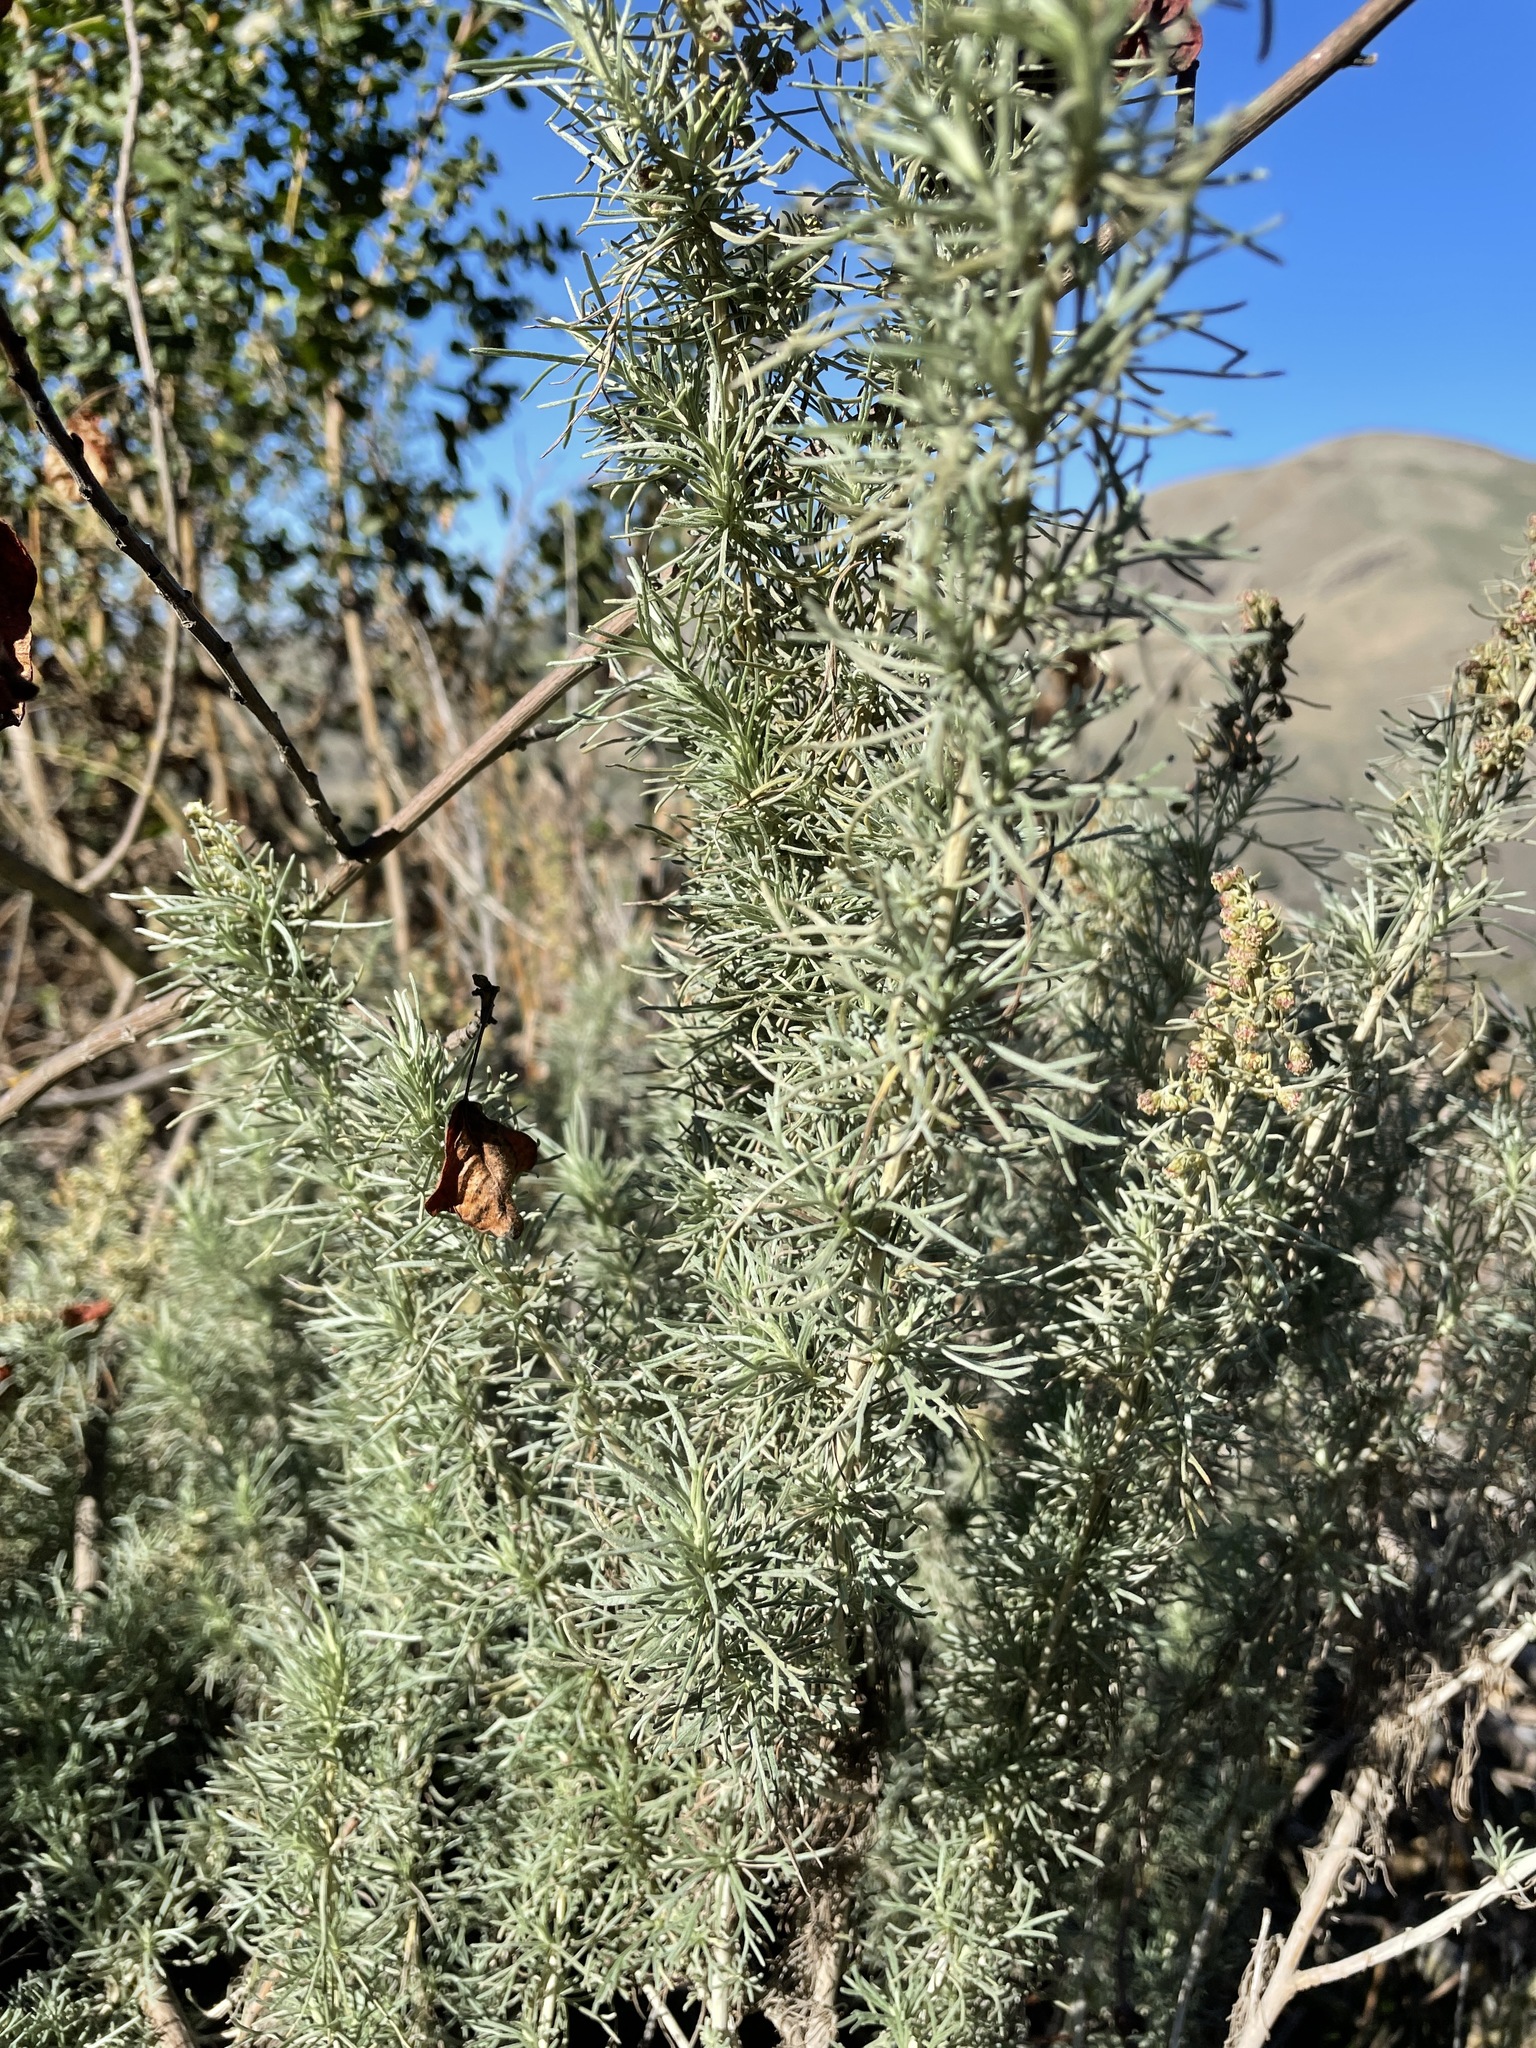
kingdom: Plantae
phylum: Tracheophyta
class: Magnoliopsida
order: Asterales
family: Asteraceae
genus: Artemisia
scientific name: Artemisia californica
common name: California sagebrush
